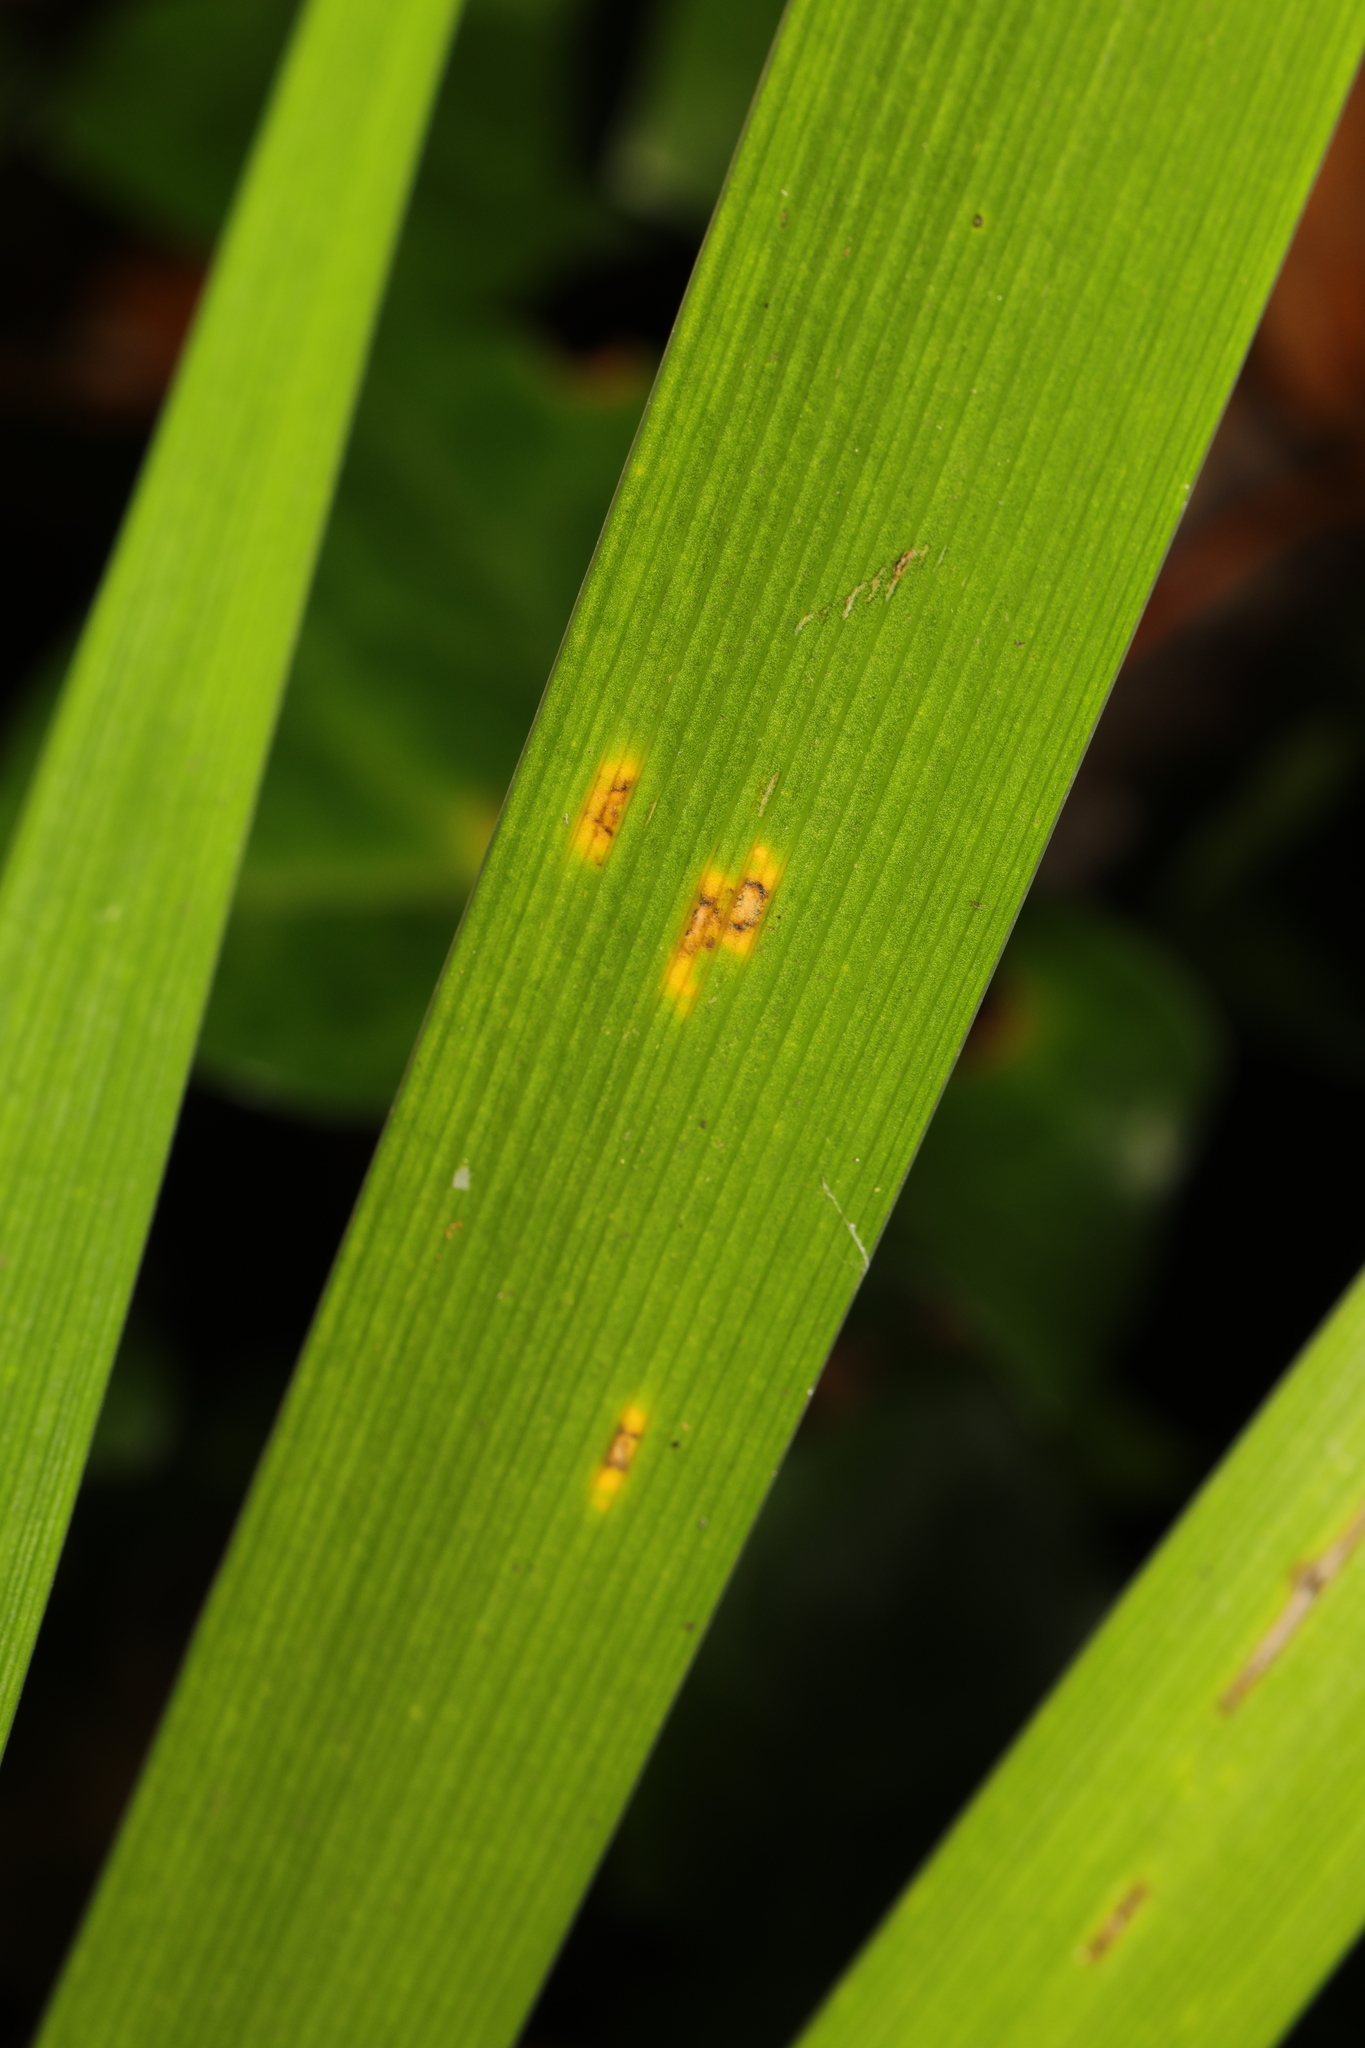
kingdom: Fungi
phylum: Basidiomycota
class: Pucciniomycetes
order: Pucciniales
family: Pucciniaceae
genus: Puccinia
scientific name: Puccinia iridis
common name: Iris rust
